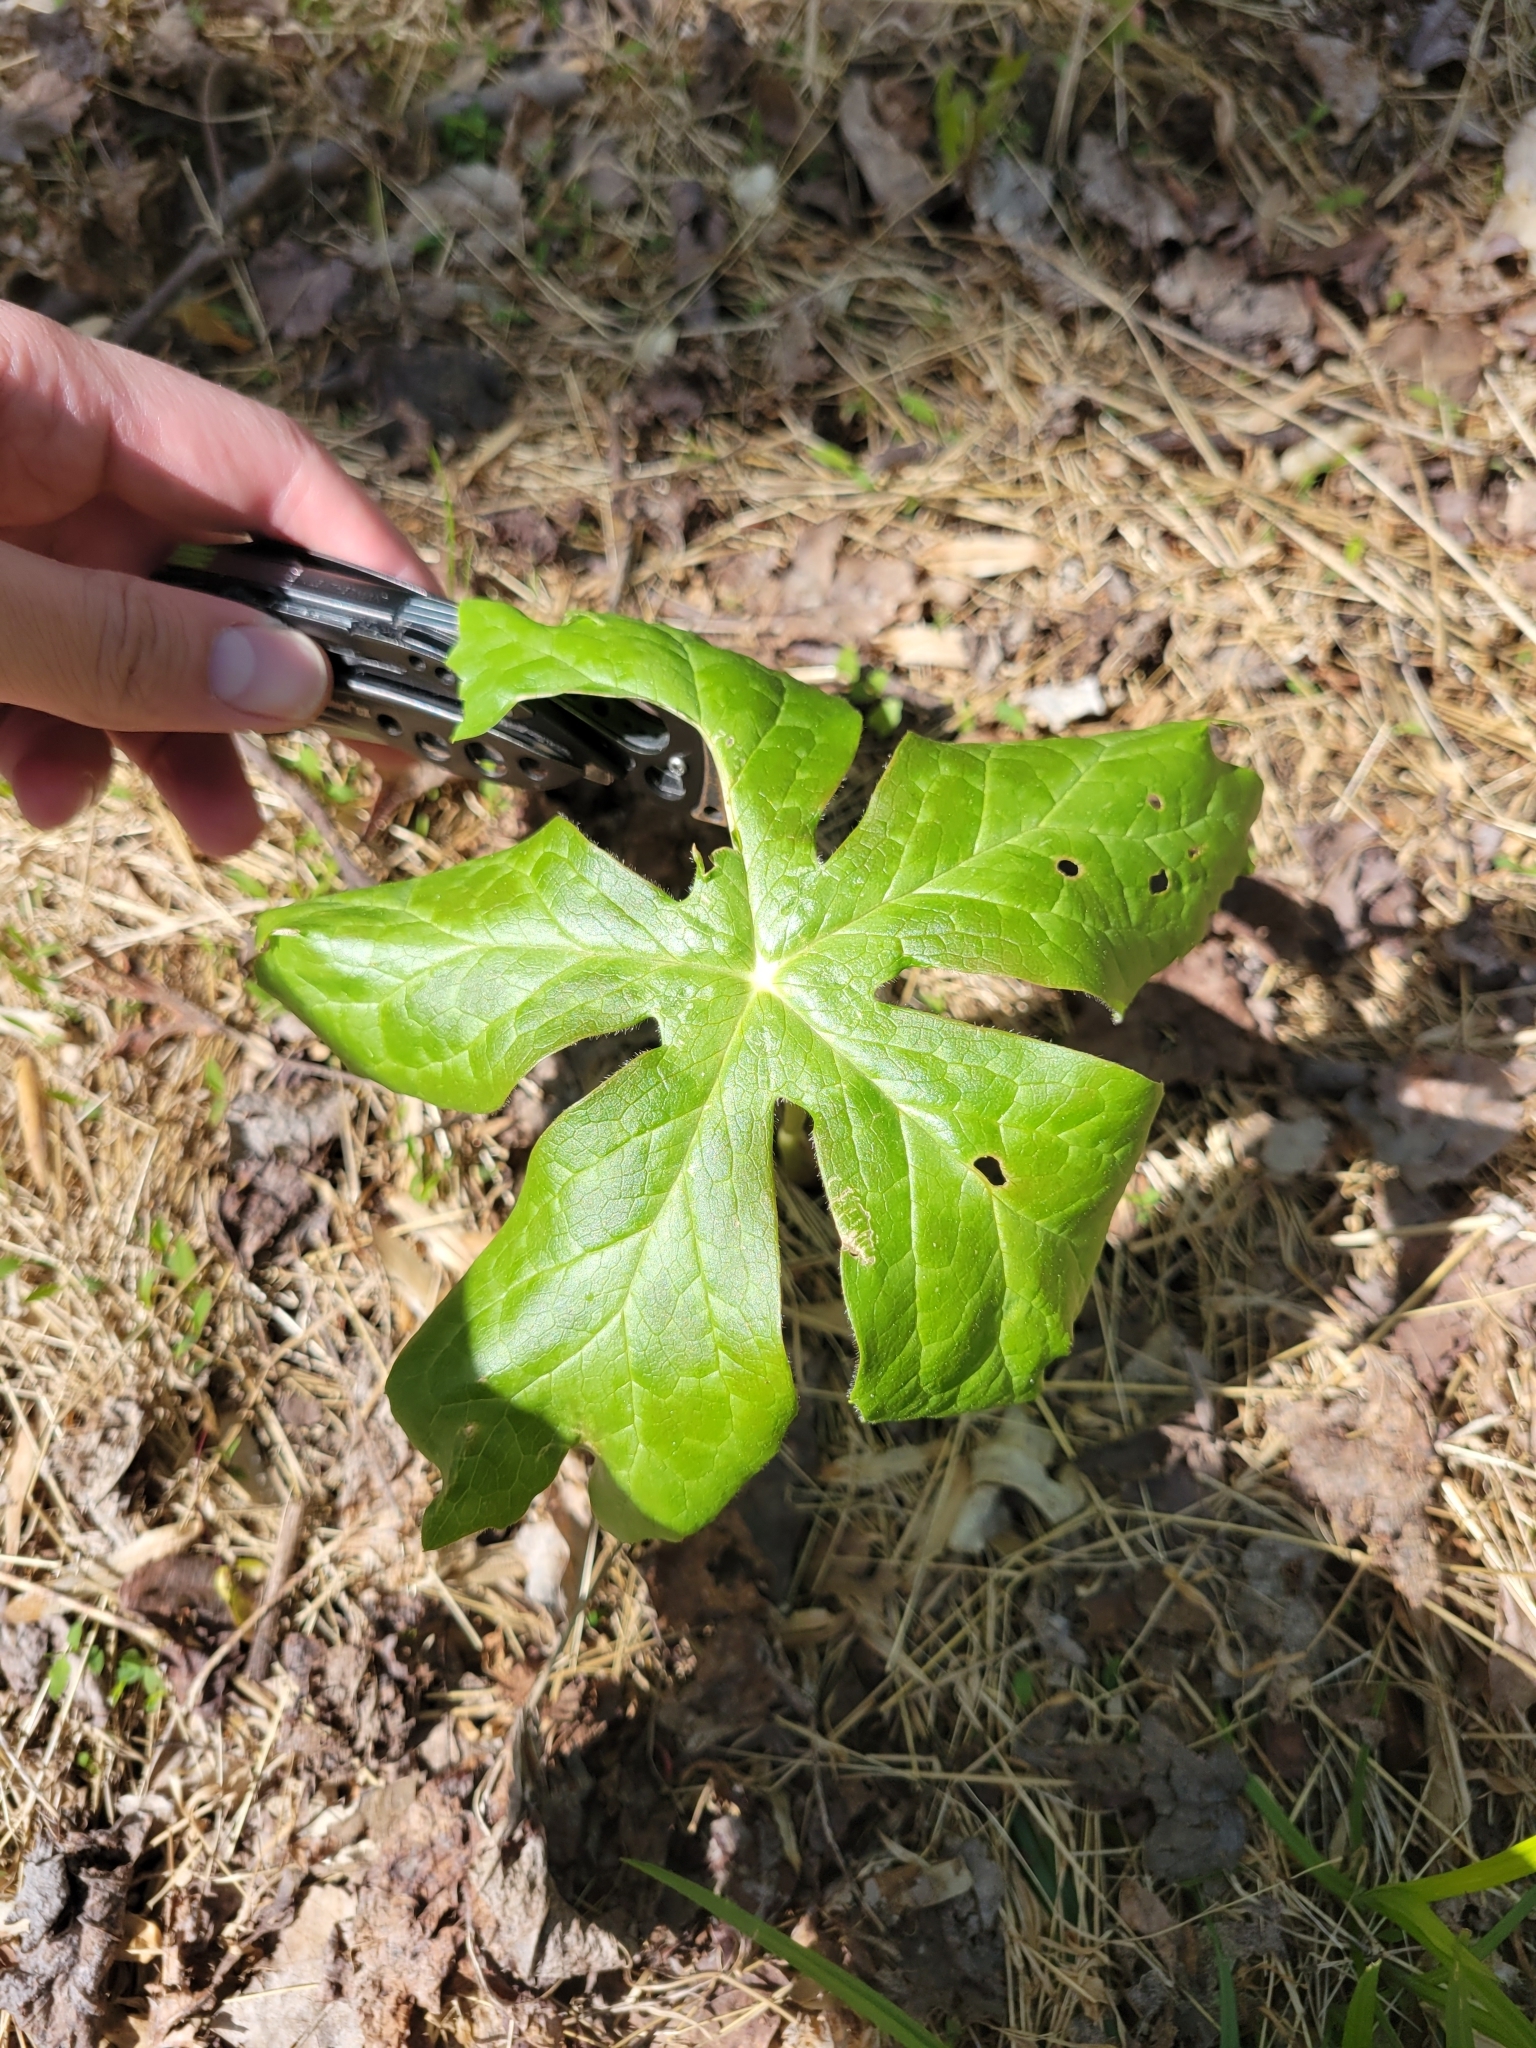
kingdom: Plantae
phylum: Tracheophyta
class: Magnoliopsida
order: Ranunculales
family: Berberidaceae
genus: Podophyllum
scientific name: Podophyllum peltatum
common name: Wild mandrake
